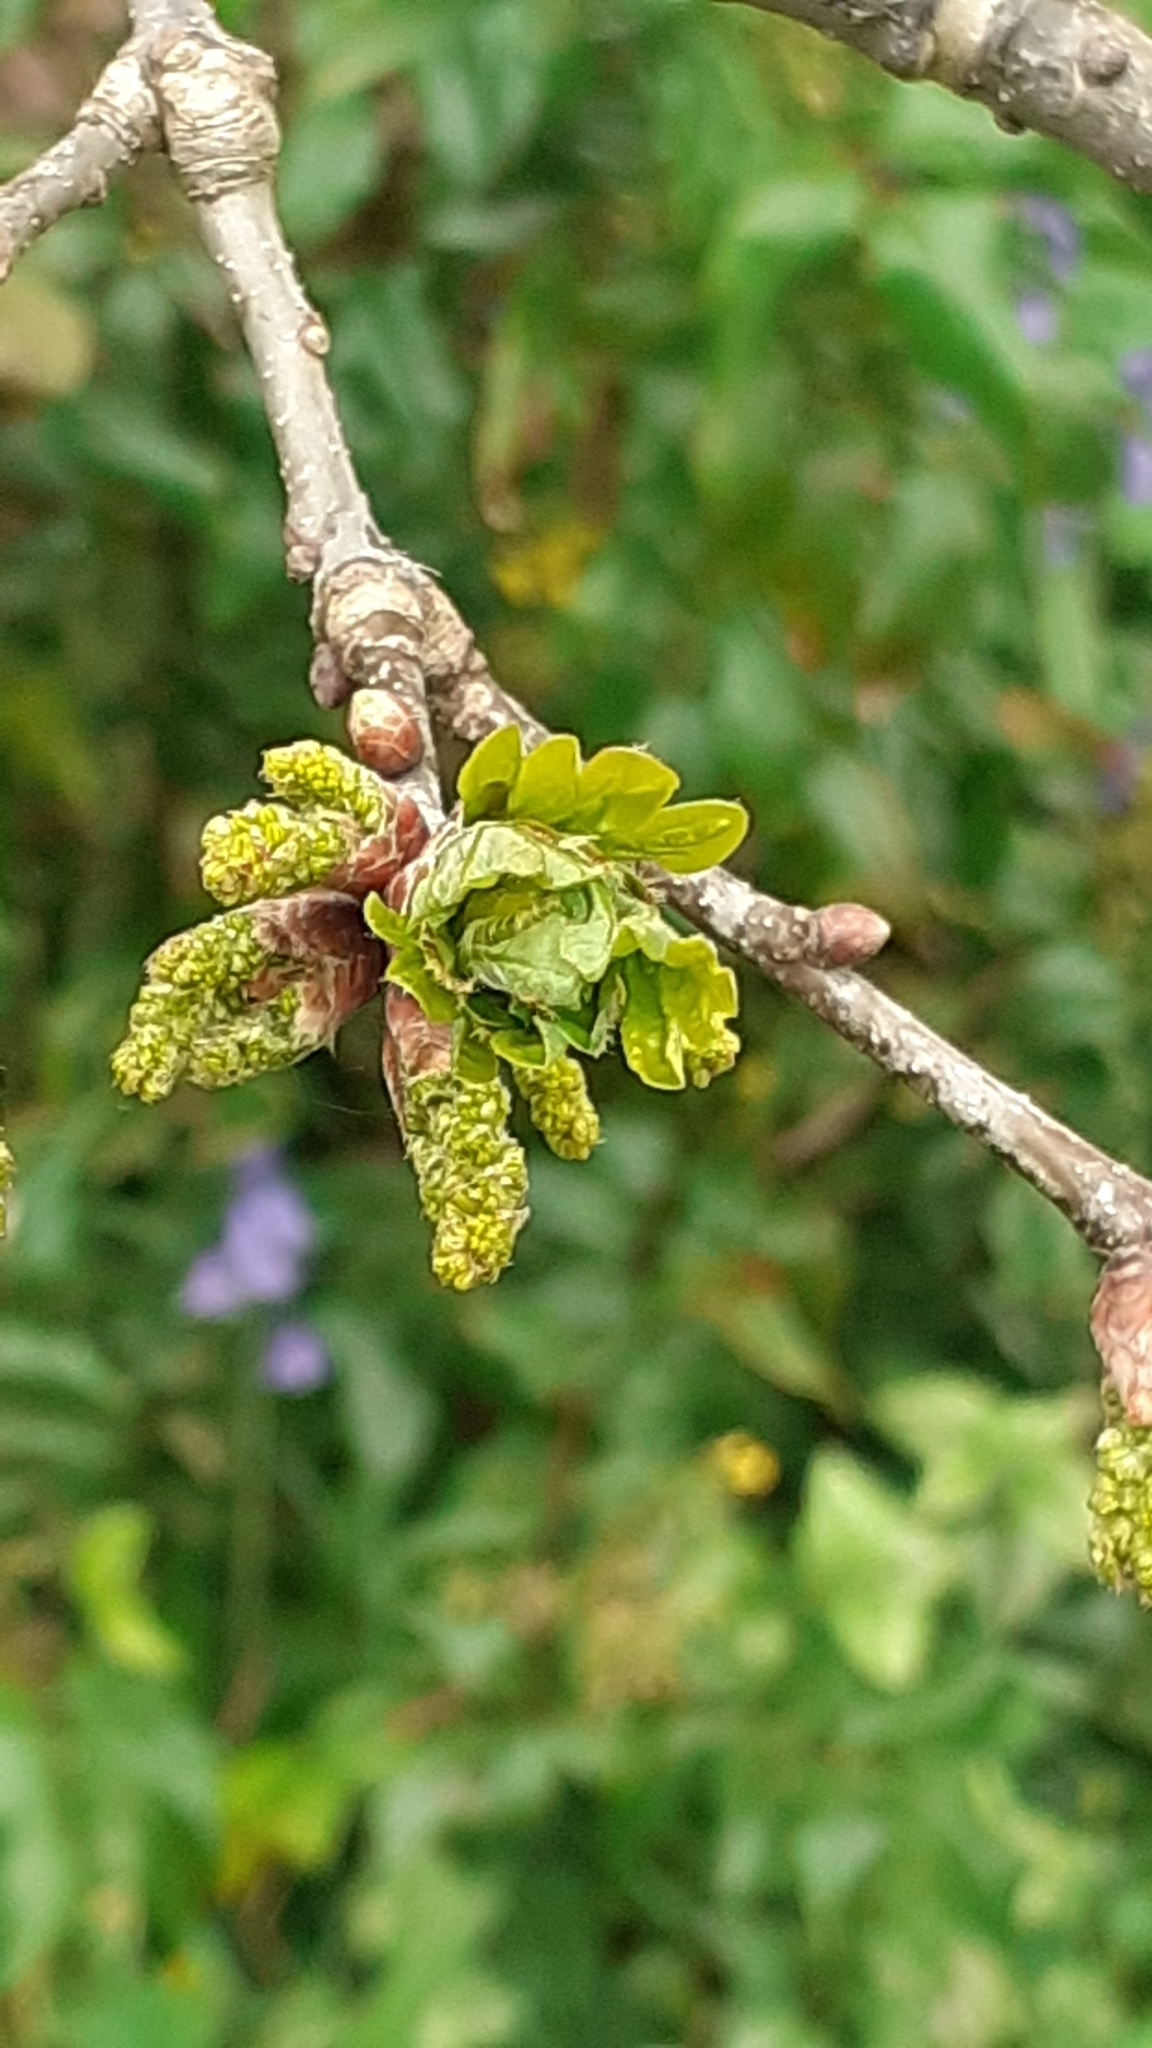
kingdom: Plantae
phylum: Tracheophyta
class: Magnoliopsida
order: Fagales
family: Fagaceae
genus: Quercus
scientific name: Quercus robur
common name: Pedunculate oak
